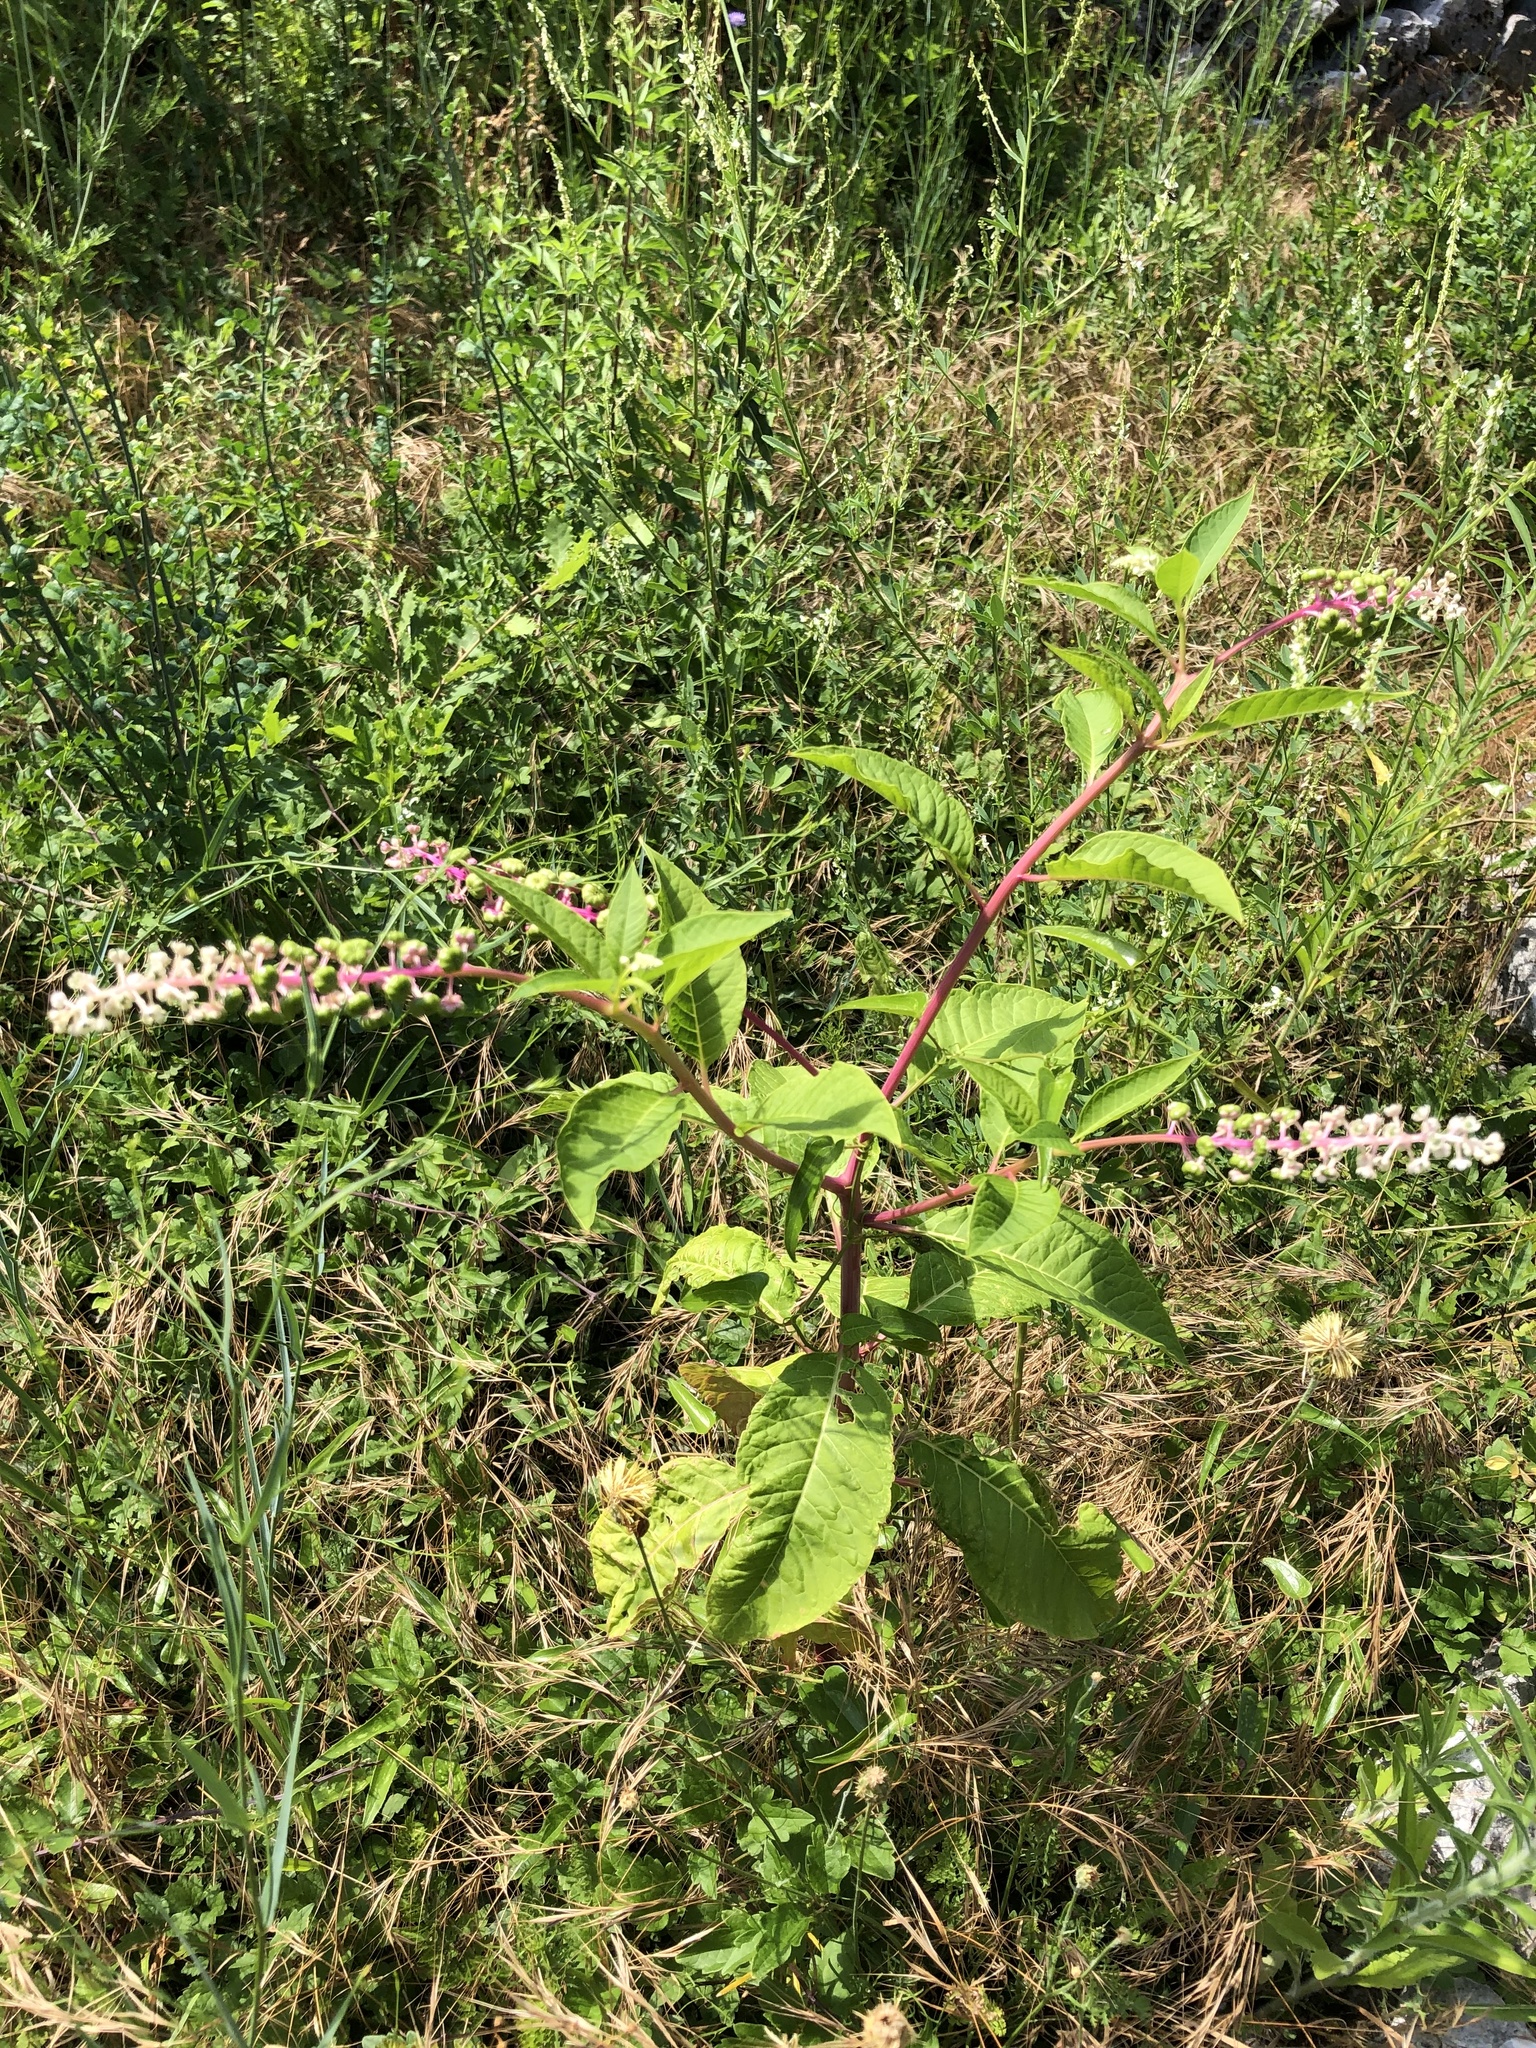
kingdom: Plantae
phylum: Tracheophyta
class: Magnoliopsida
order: Caryophyllales
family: Phytolaccaceae
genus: Phytolacca
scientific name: Phytolacca americana
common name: American pokeweed
